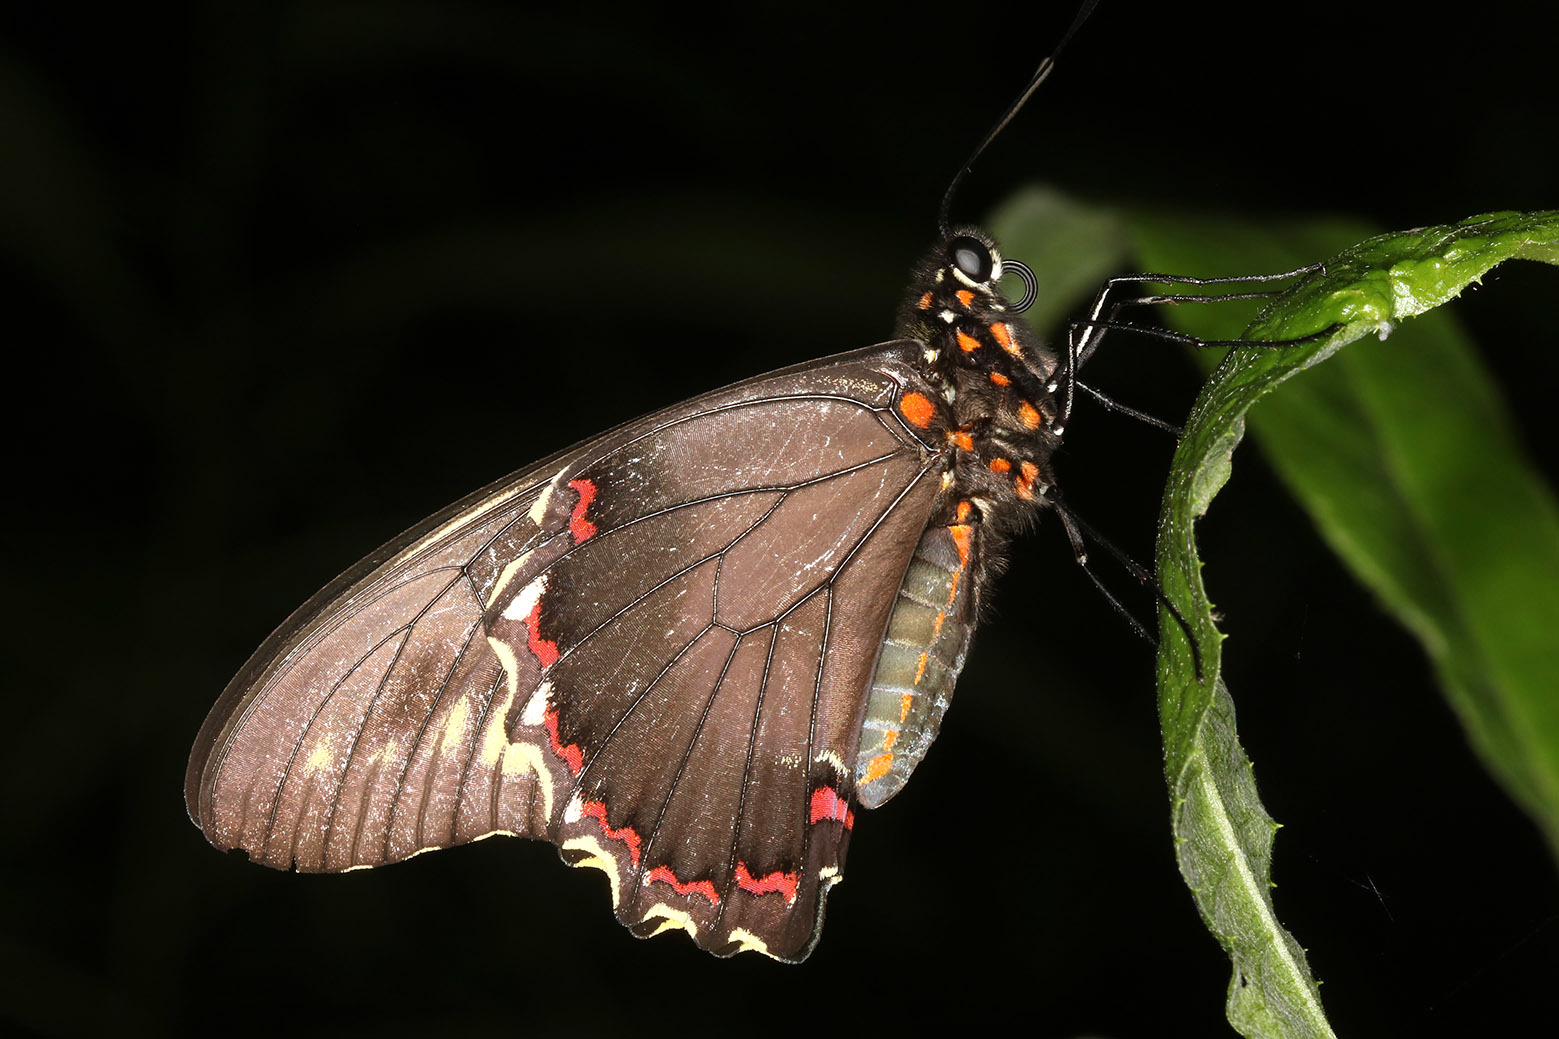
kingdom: Animalia
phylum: Arthropoda
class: Insecta
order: Lepidoptera
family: Papilionidae
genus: Battus
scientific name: Battus polydamas
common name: Polydamas swallowtail
